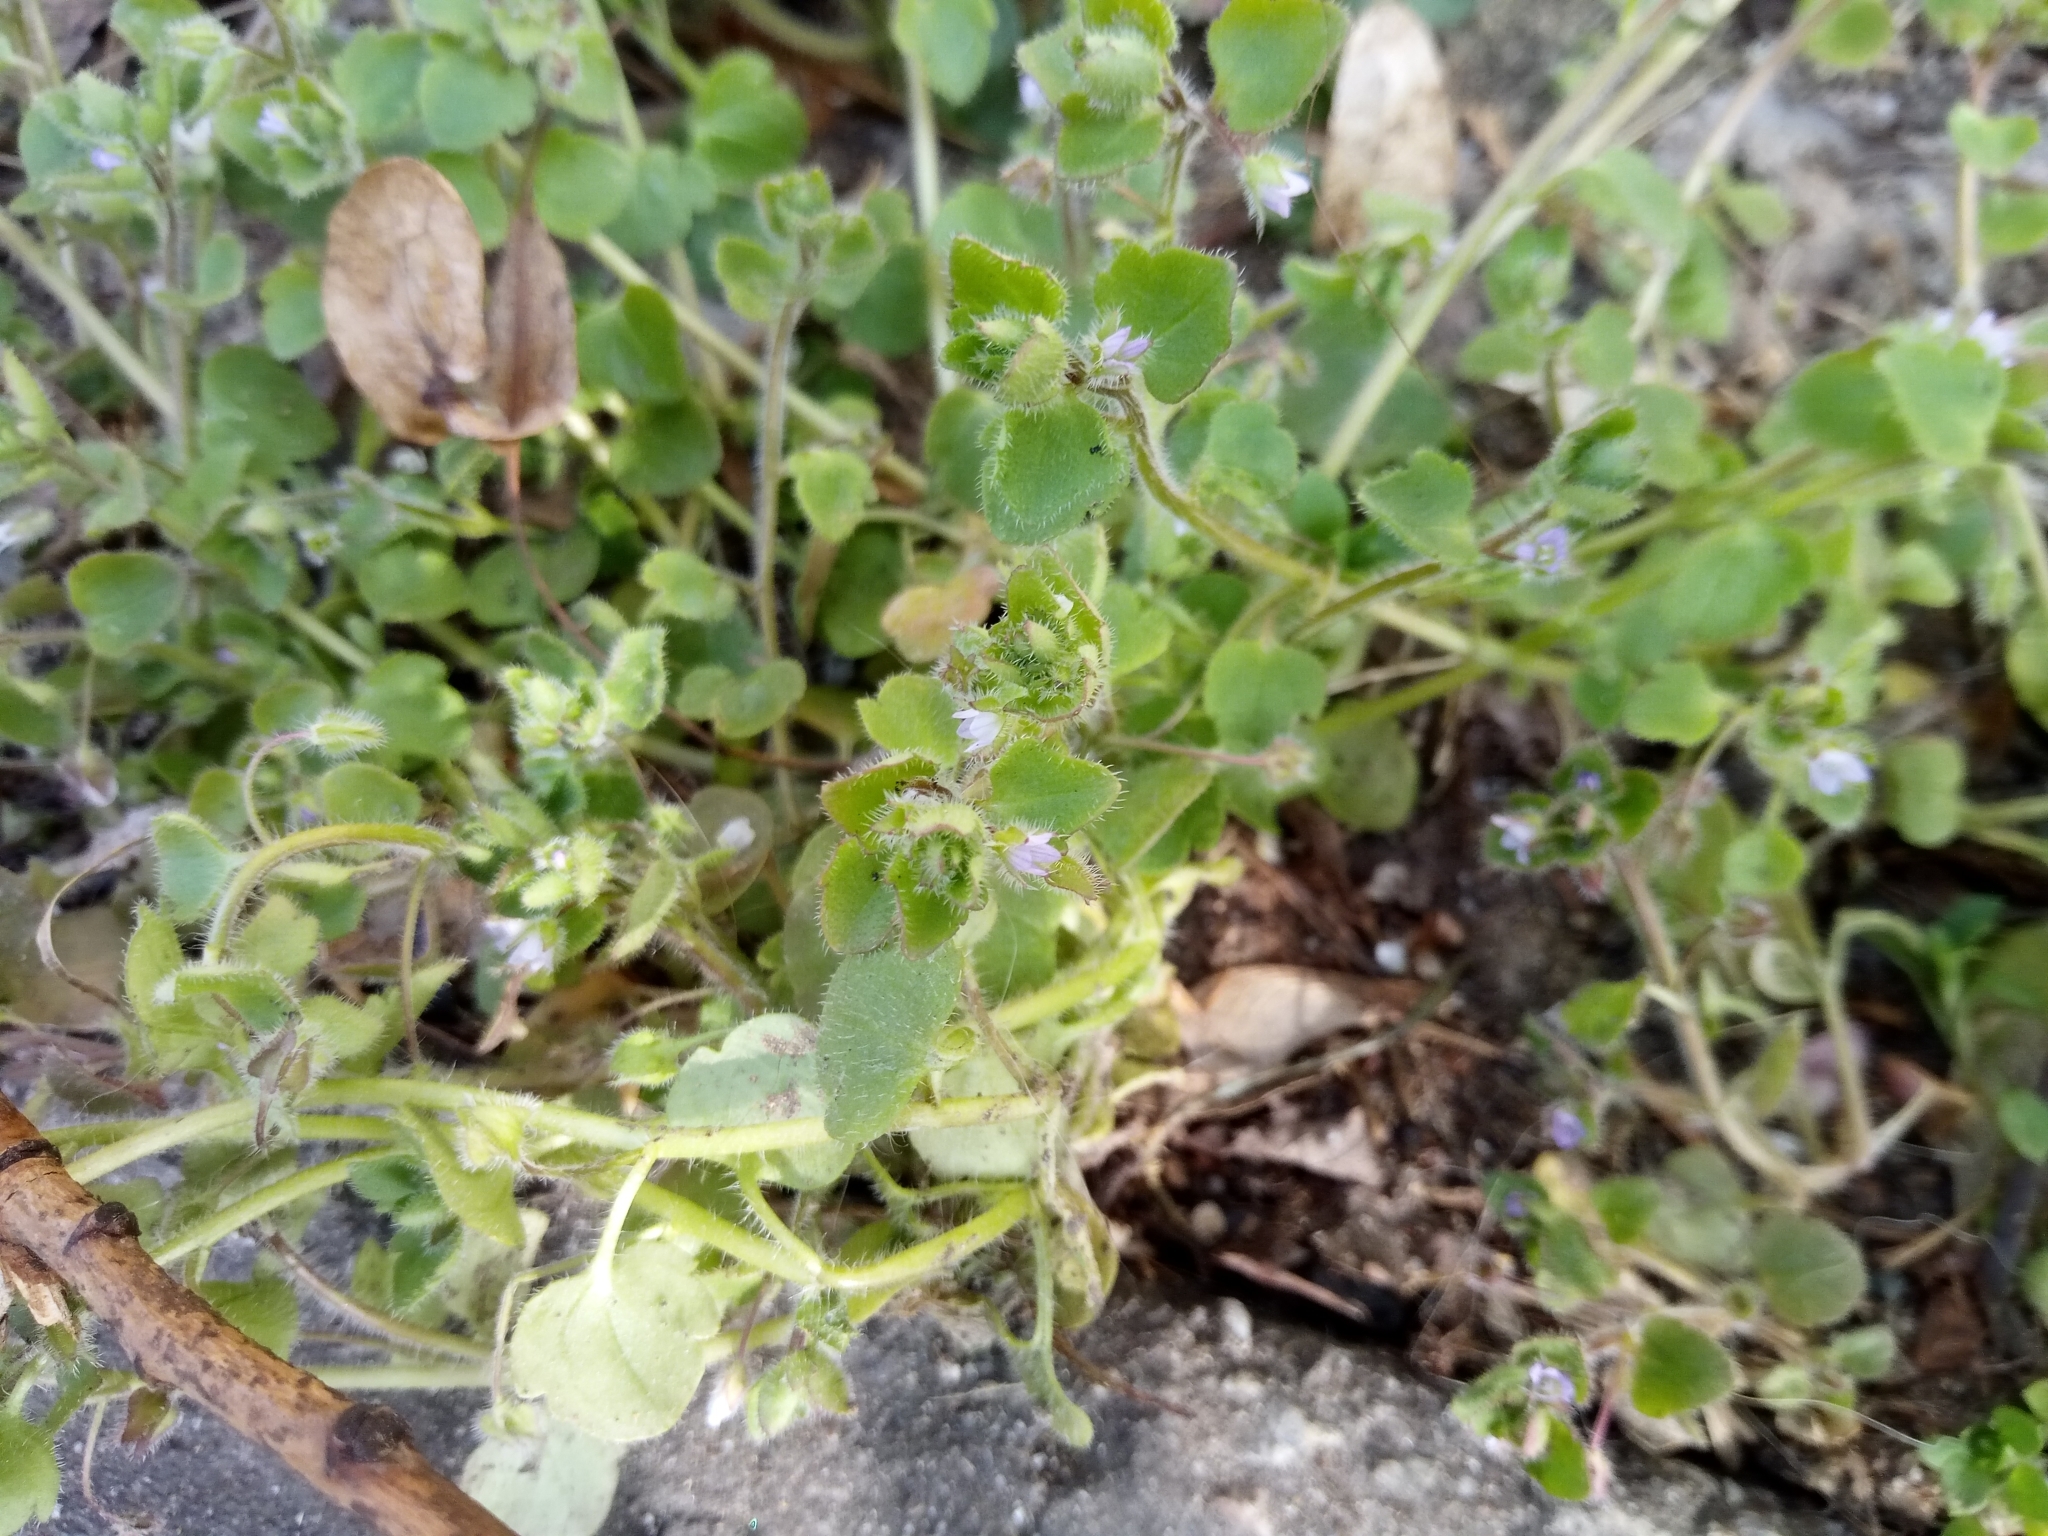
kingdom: Plantae
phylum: Tracheophyta
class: Magnoliopsida
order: Lamiales
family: Plantaginaceae
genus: Veronica
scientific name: Veronica sublobata
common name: False ivy-leaved speedwell
